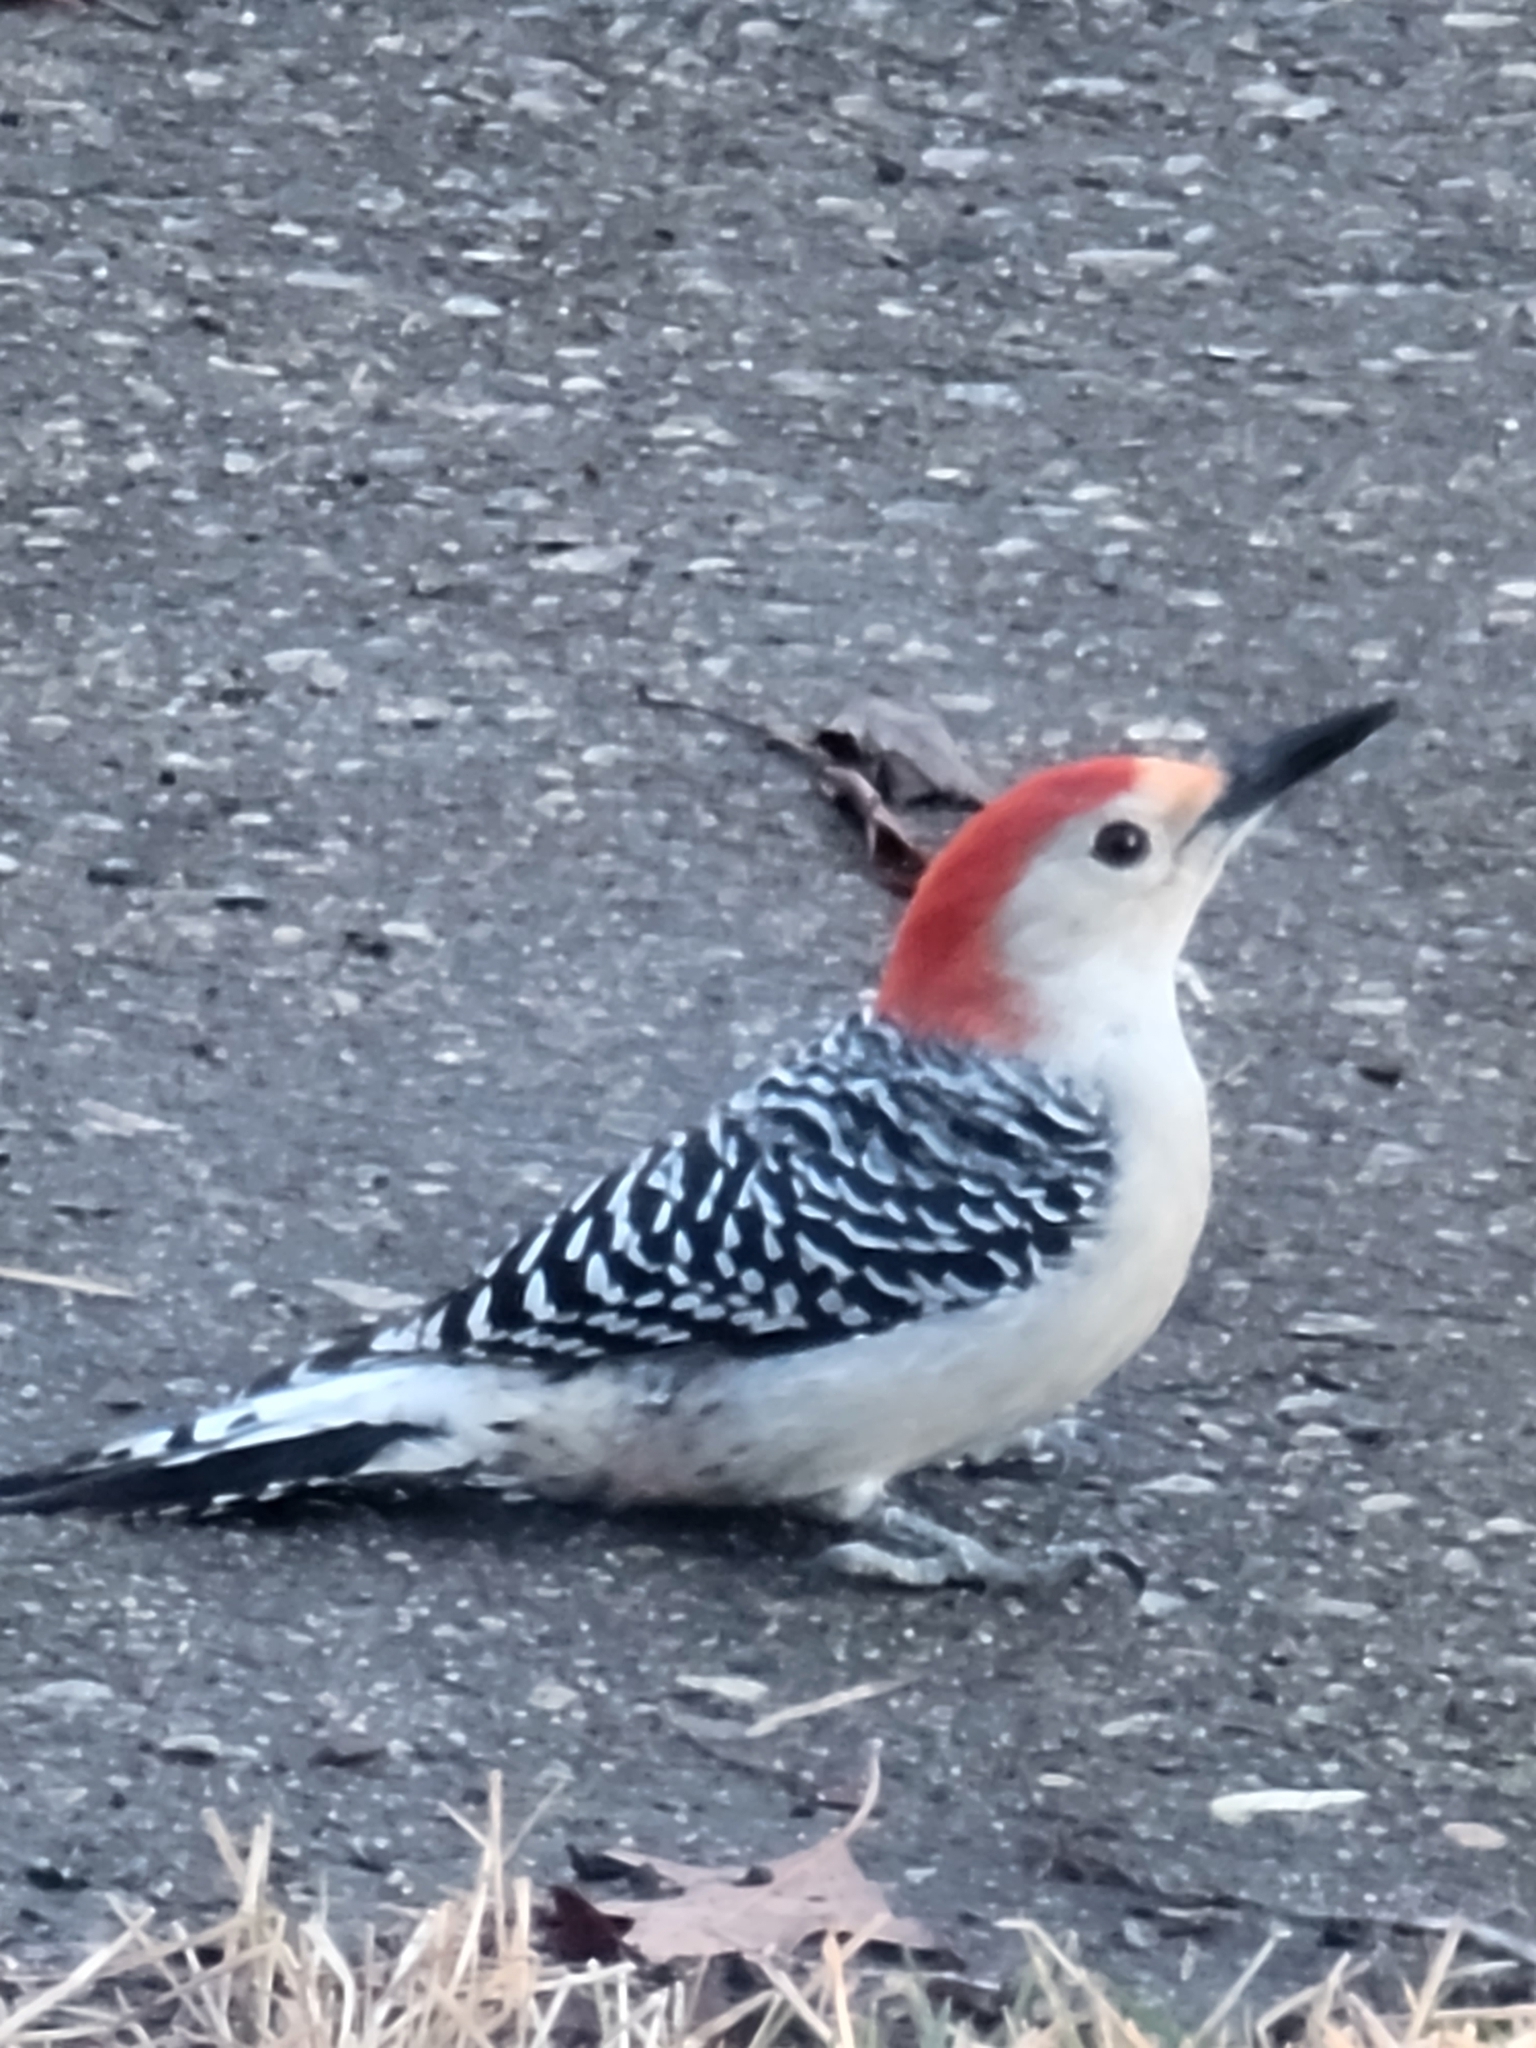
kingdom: Animalia
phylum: Chordata
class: Aves
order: Piciformes
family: Picidae
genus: Melanerpes
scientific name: Melanerpes carolinus
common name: Red-bellied woodpecker
